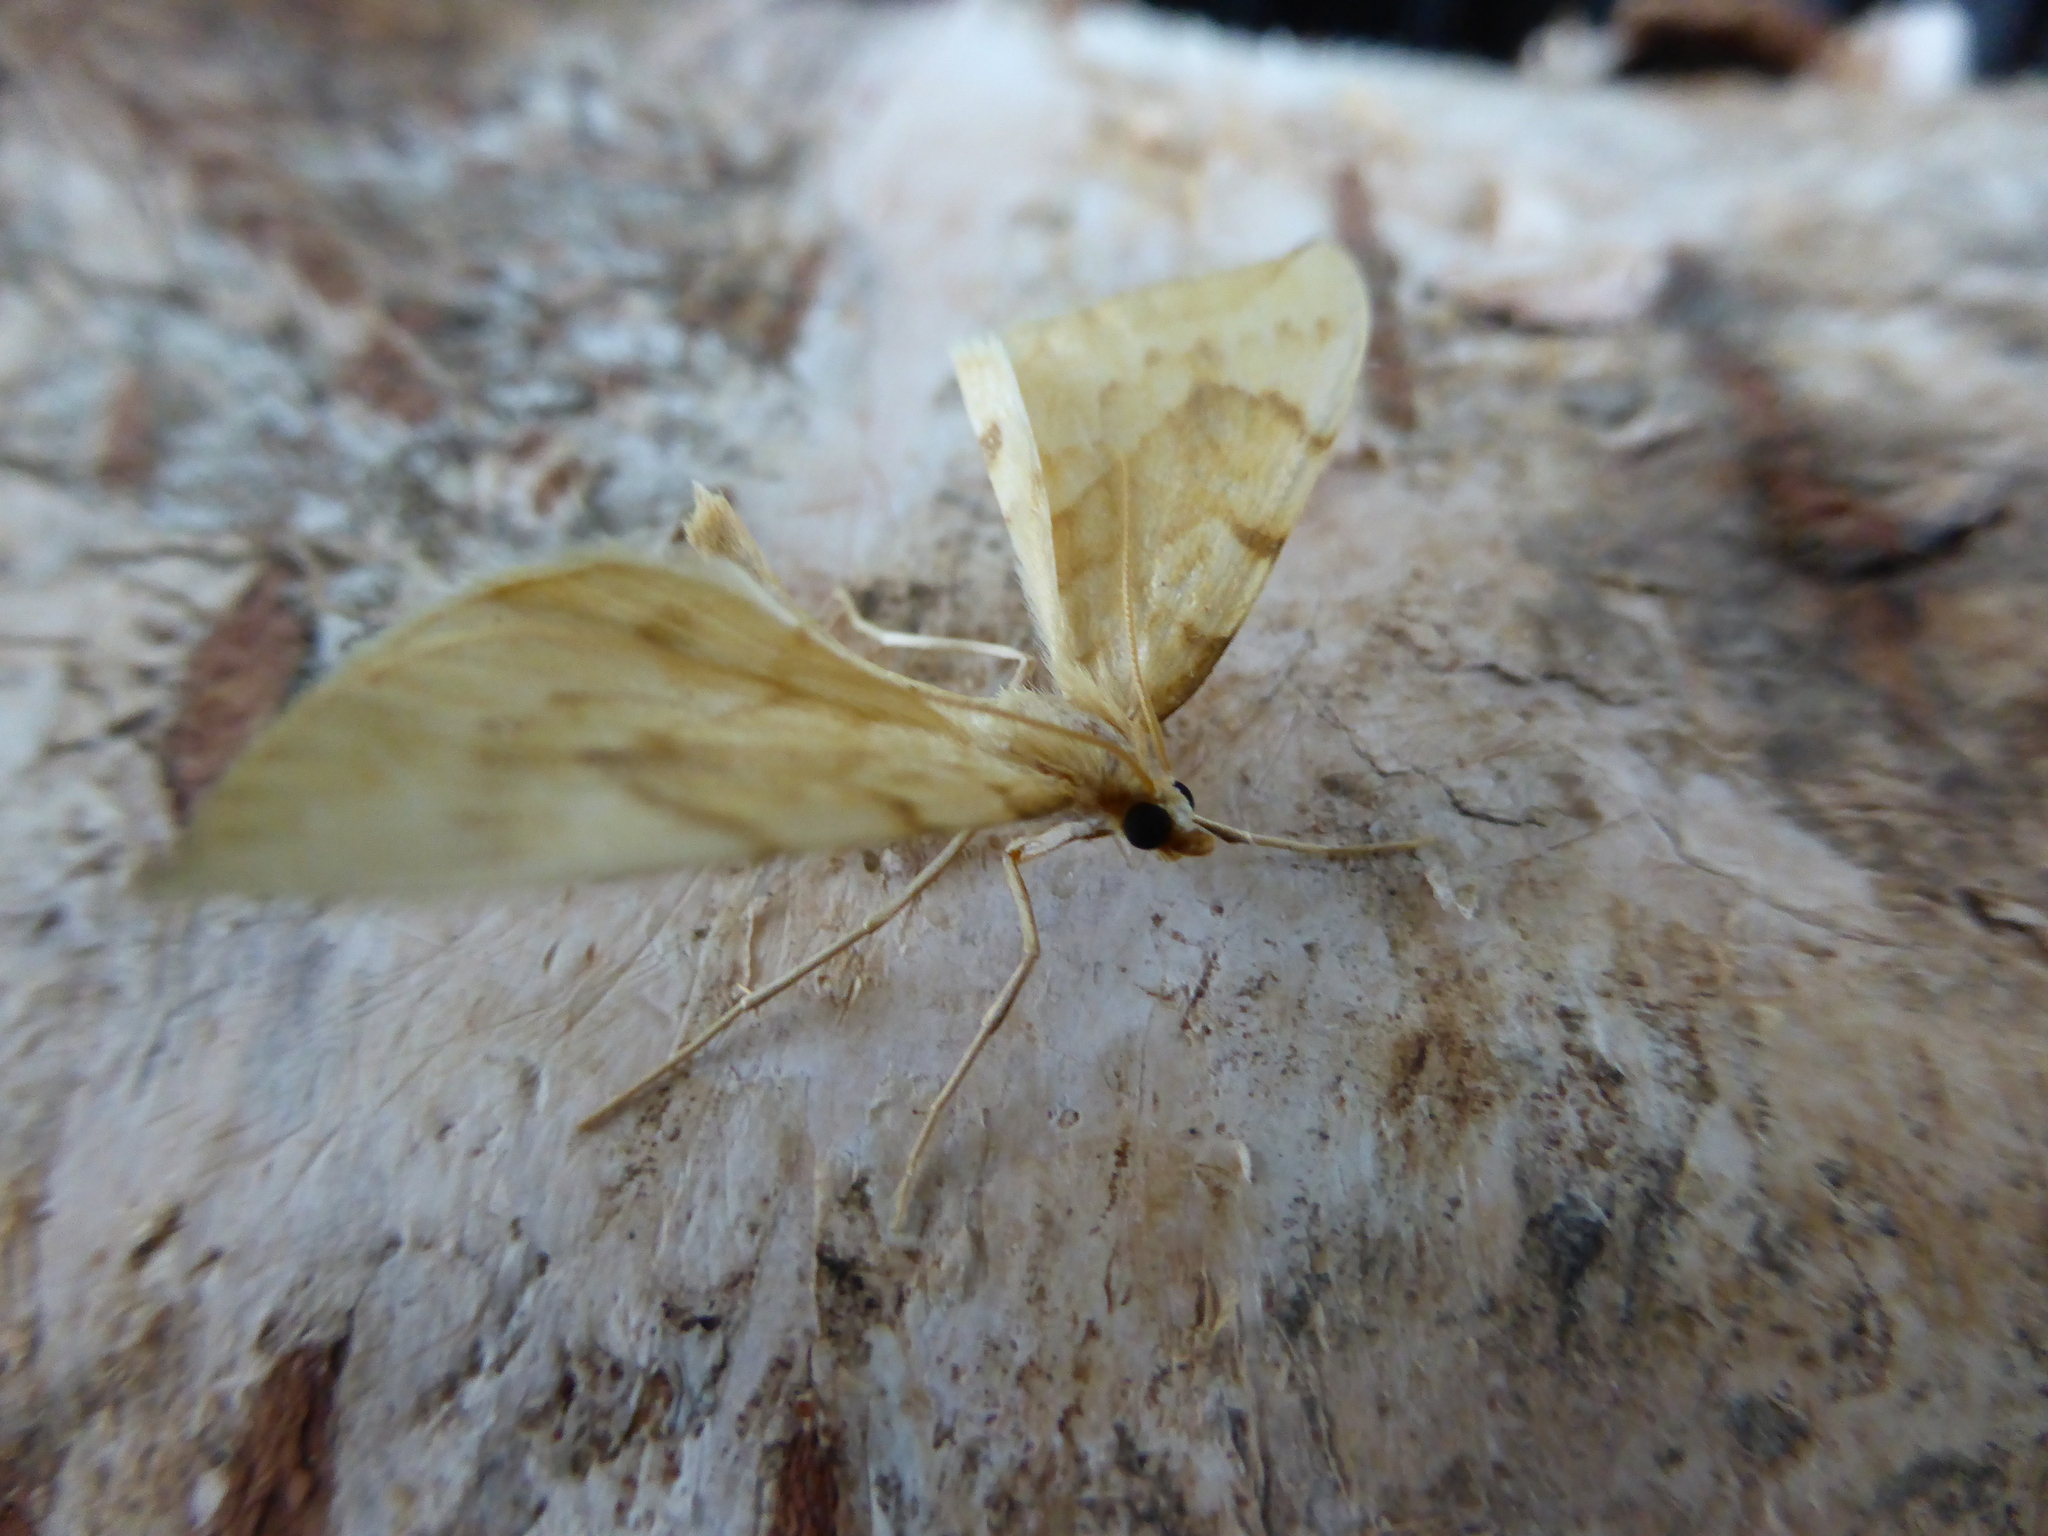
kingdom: Animalia
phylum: Arthropoda
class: Insecta
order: Lepidoptera
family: Geometridae
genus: Eulithis
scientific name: Eulithis pyraliata
